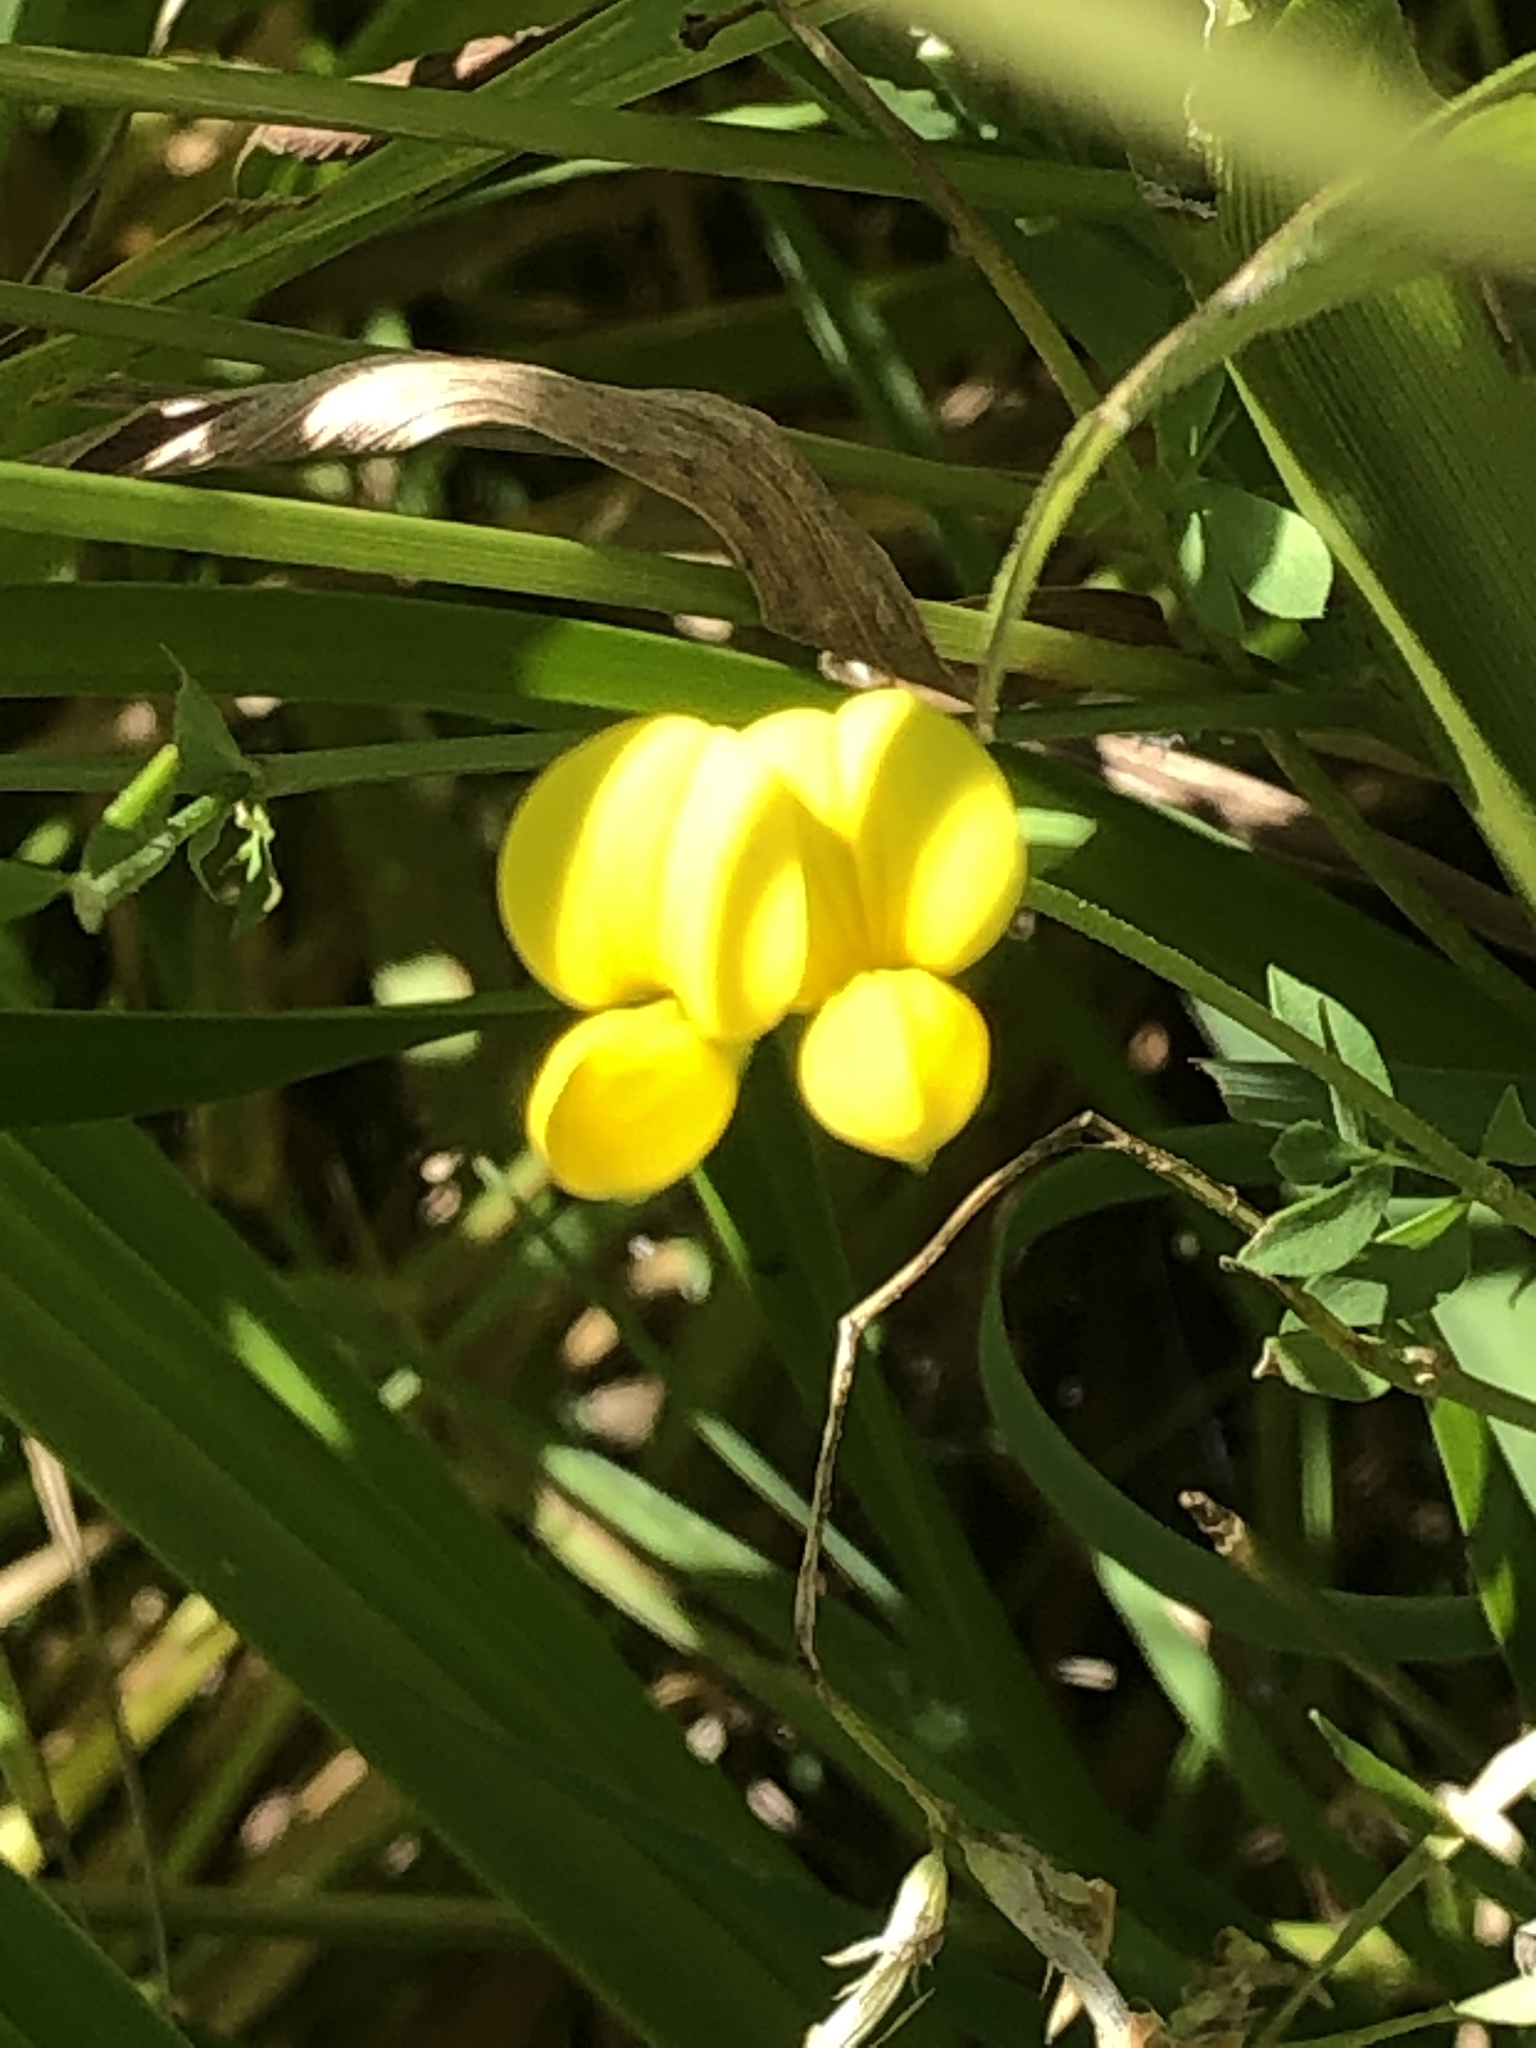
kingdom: Plantae
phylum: Tracheophyta
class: Magnoliopsida
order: Fabales
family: Fabaceae
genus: Lotus
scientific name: Lotus corniculatus
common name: Common bird's-foot-trefoil
